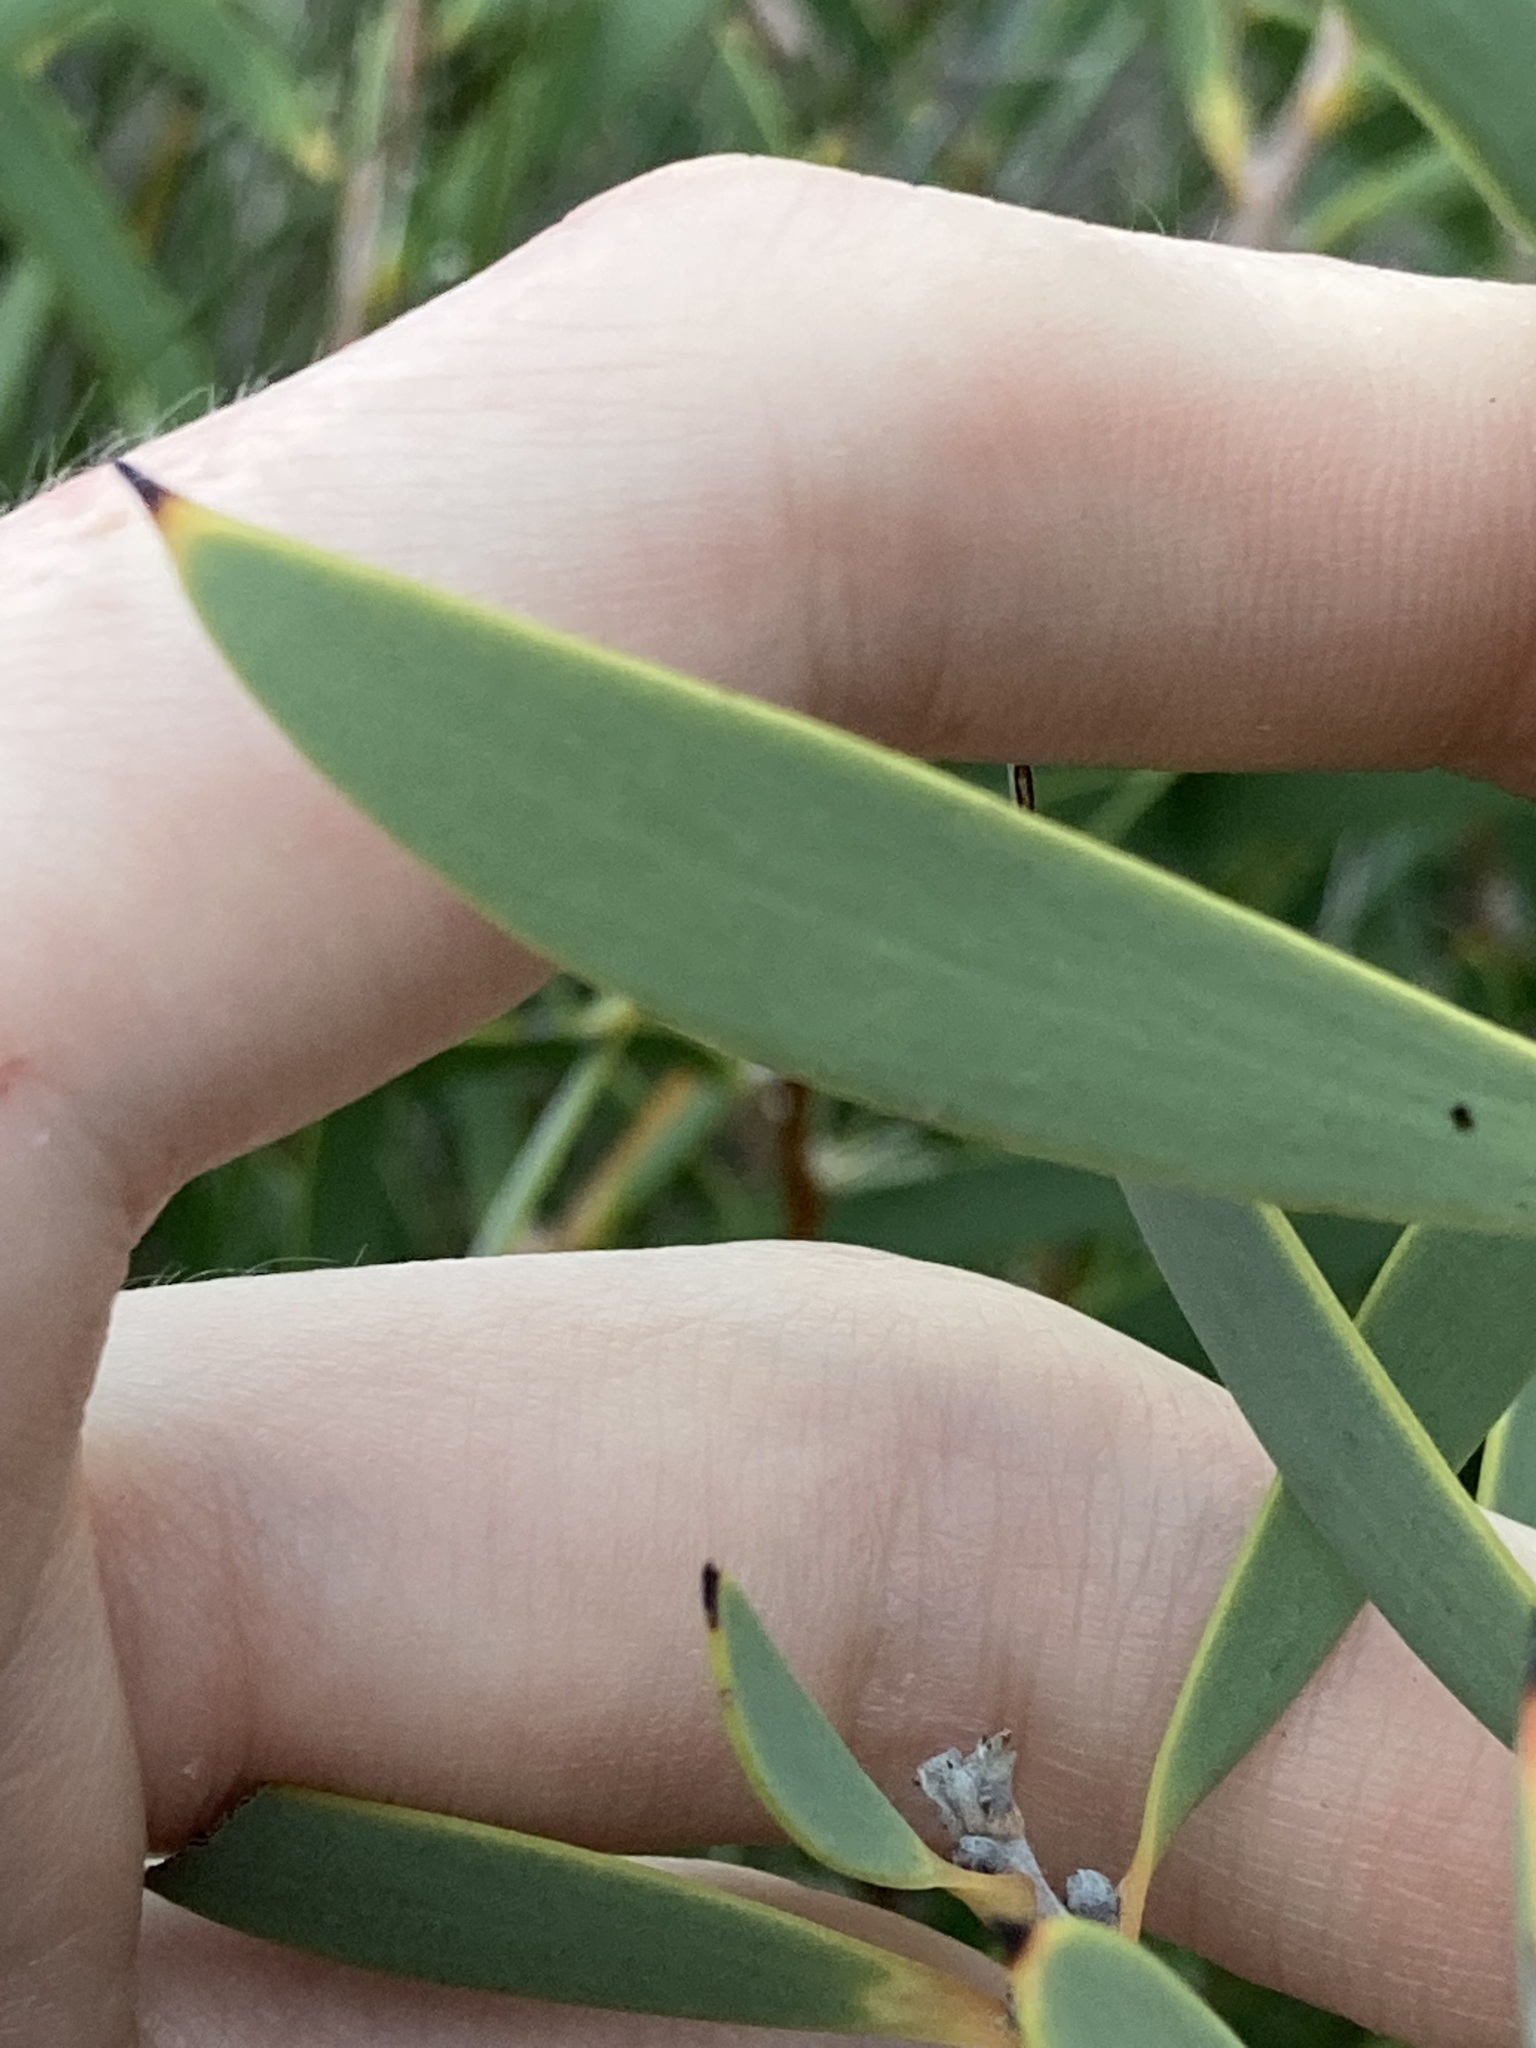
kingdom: Plantae
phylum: Tracheophyta
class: Magnoliopsida
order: Proteales
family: Proteaceae
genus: Hakea
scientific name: Hakea incrassata
